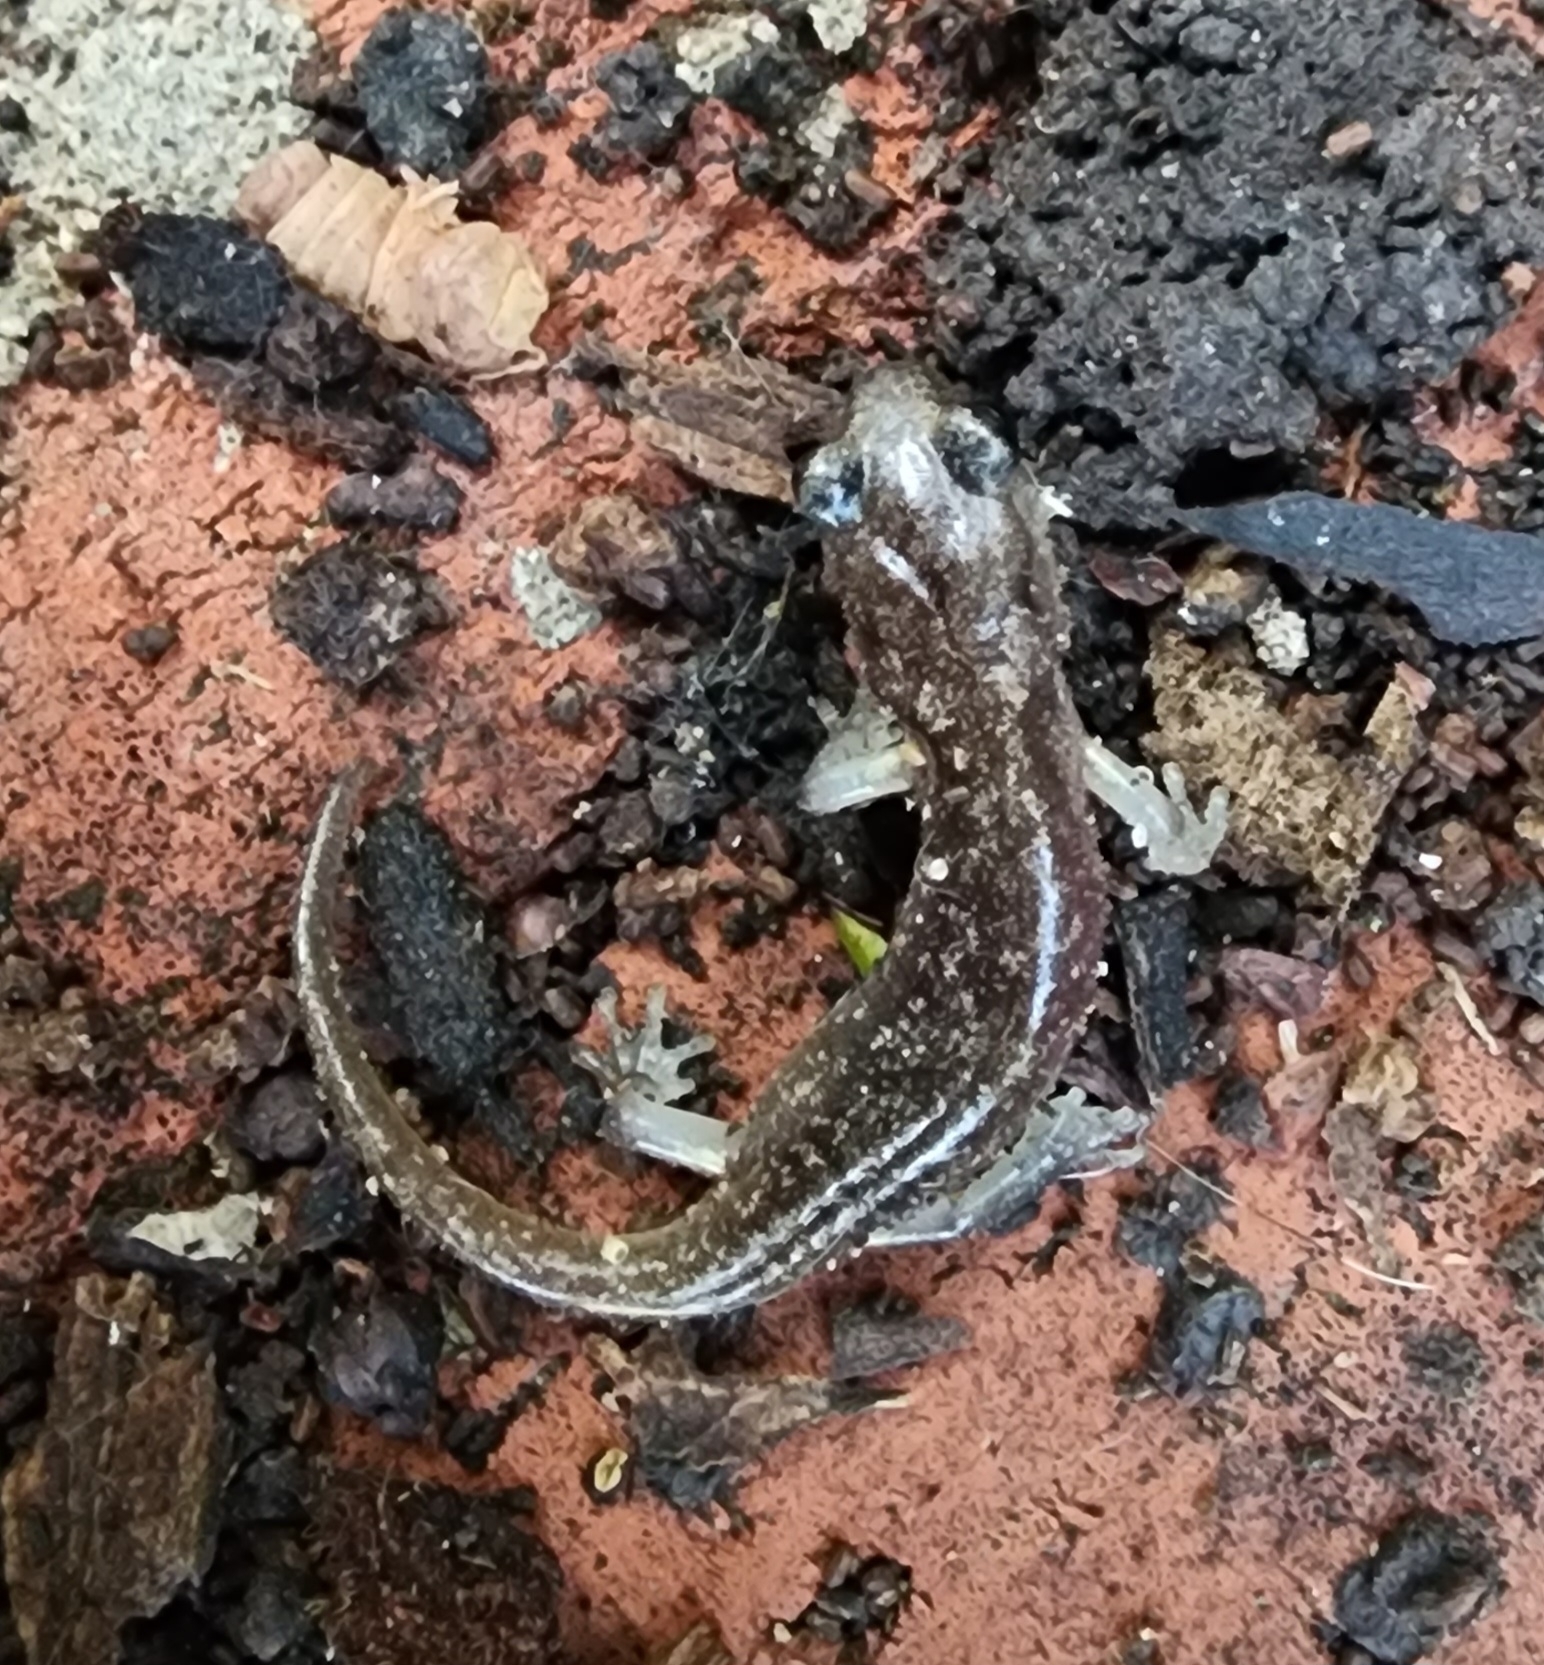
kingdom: Animalia
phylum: Chordata
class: Amphibia
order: Caudata
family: Plethodontidae
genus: Aneides
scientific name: Aneides lugubris
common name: Arboreal salamander
